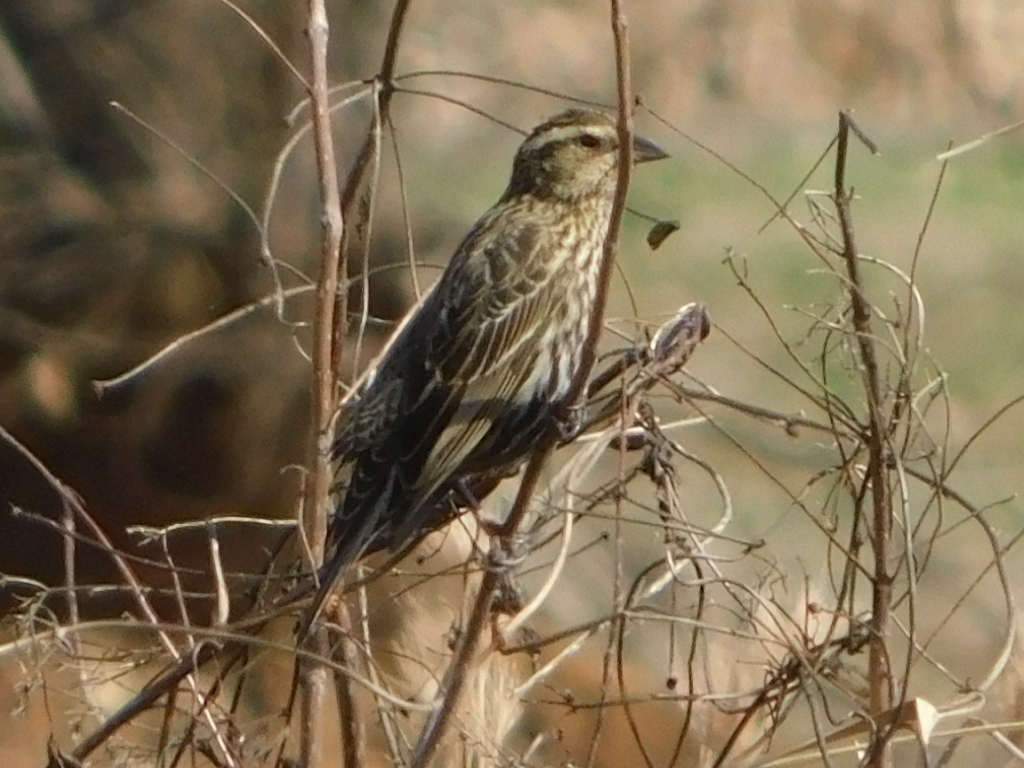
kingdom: Animalia
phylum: Chordata
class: Aves
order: Passeriformes
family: Icteridae
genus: Agelaius
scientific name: Agelaius phoeniceus
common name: Red-winged blackbird
